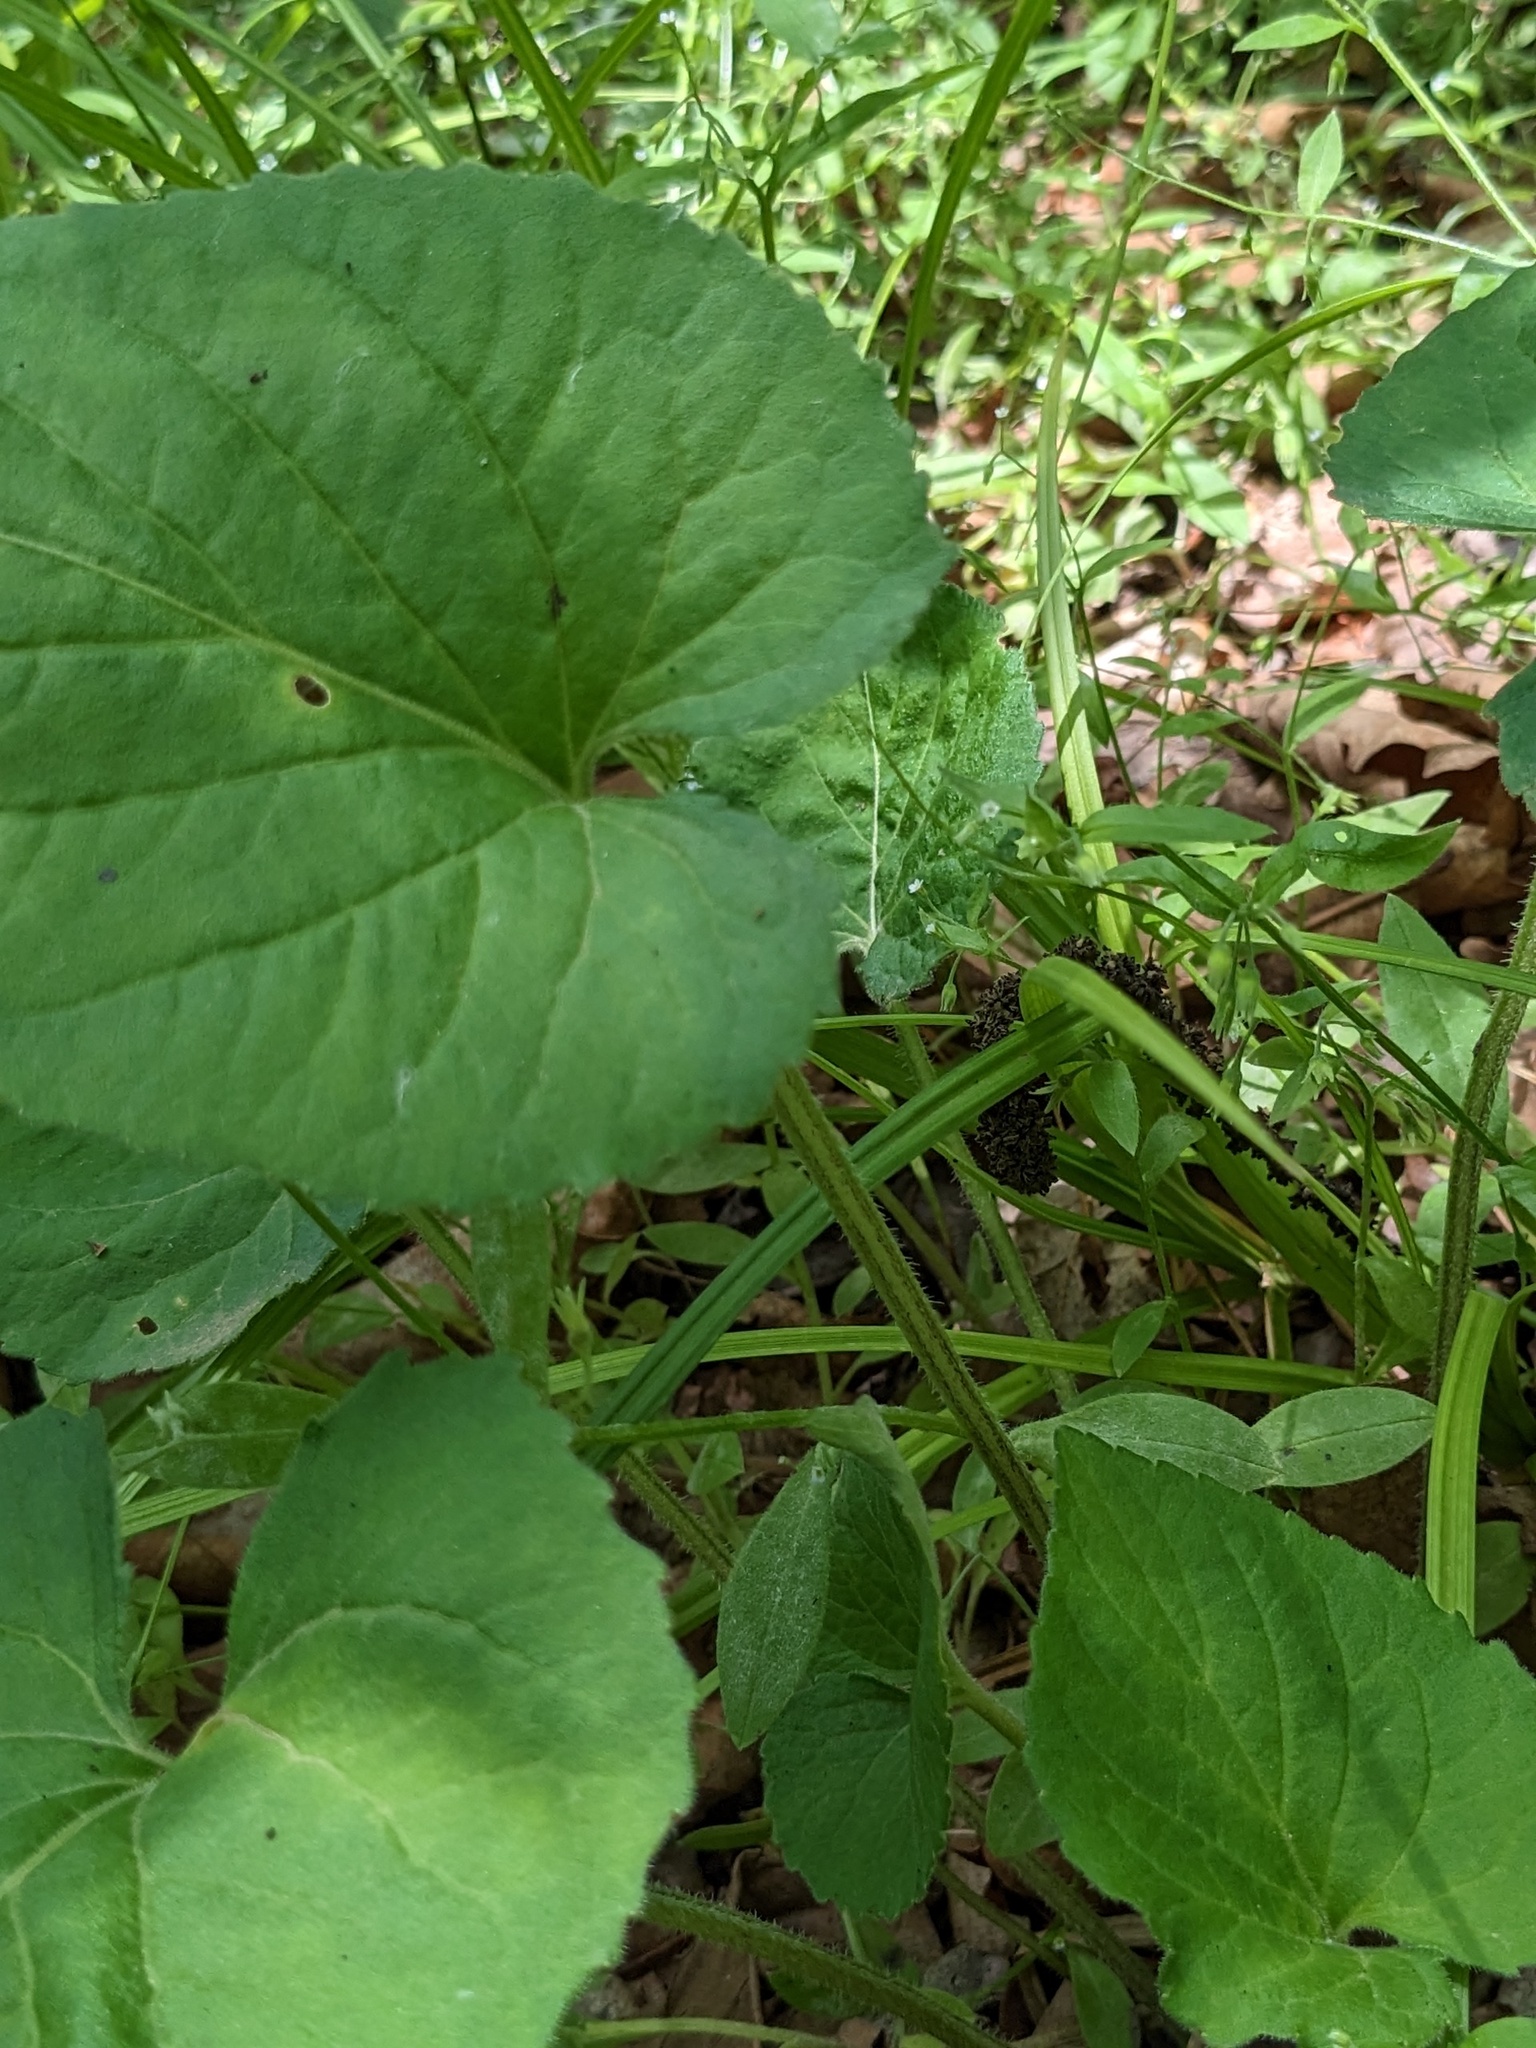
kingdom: Plantae
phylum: Tracheophyta
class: Magnoliopsida
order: Asterales
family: Asteraceae
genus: Aster
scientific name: Aster scaber
